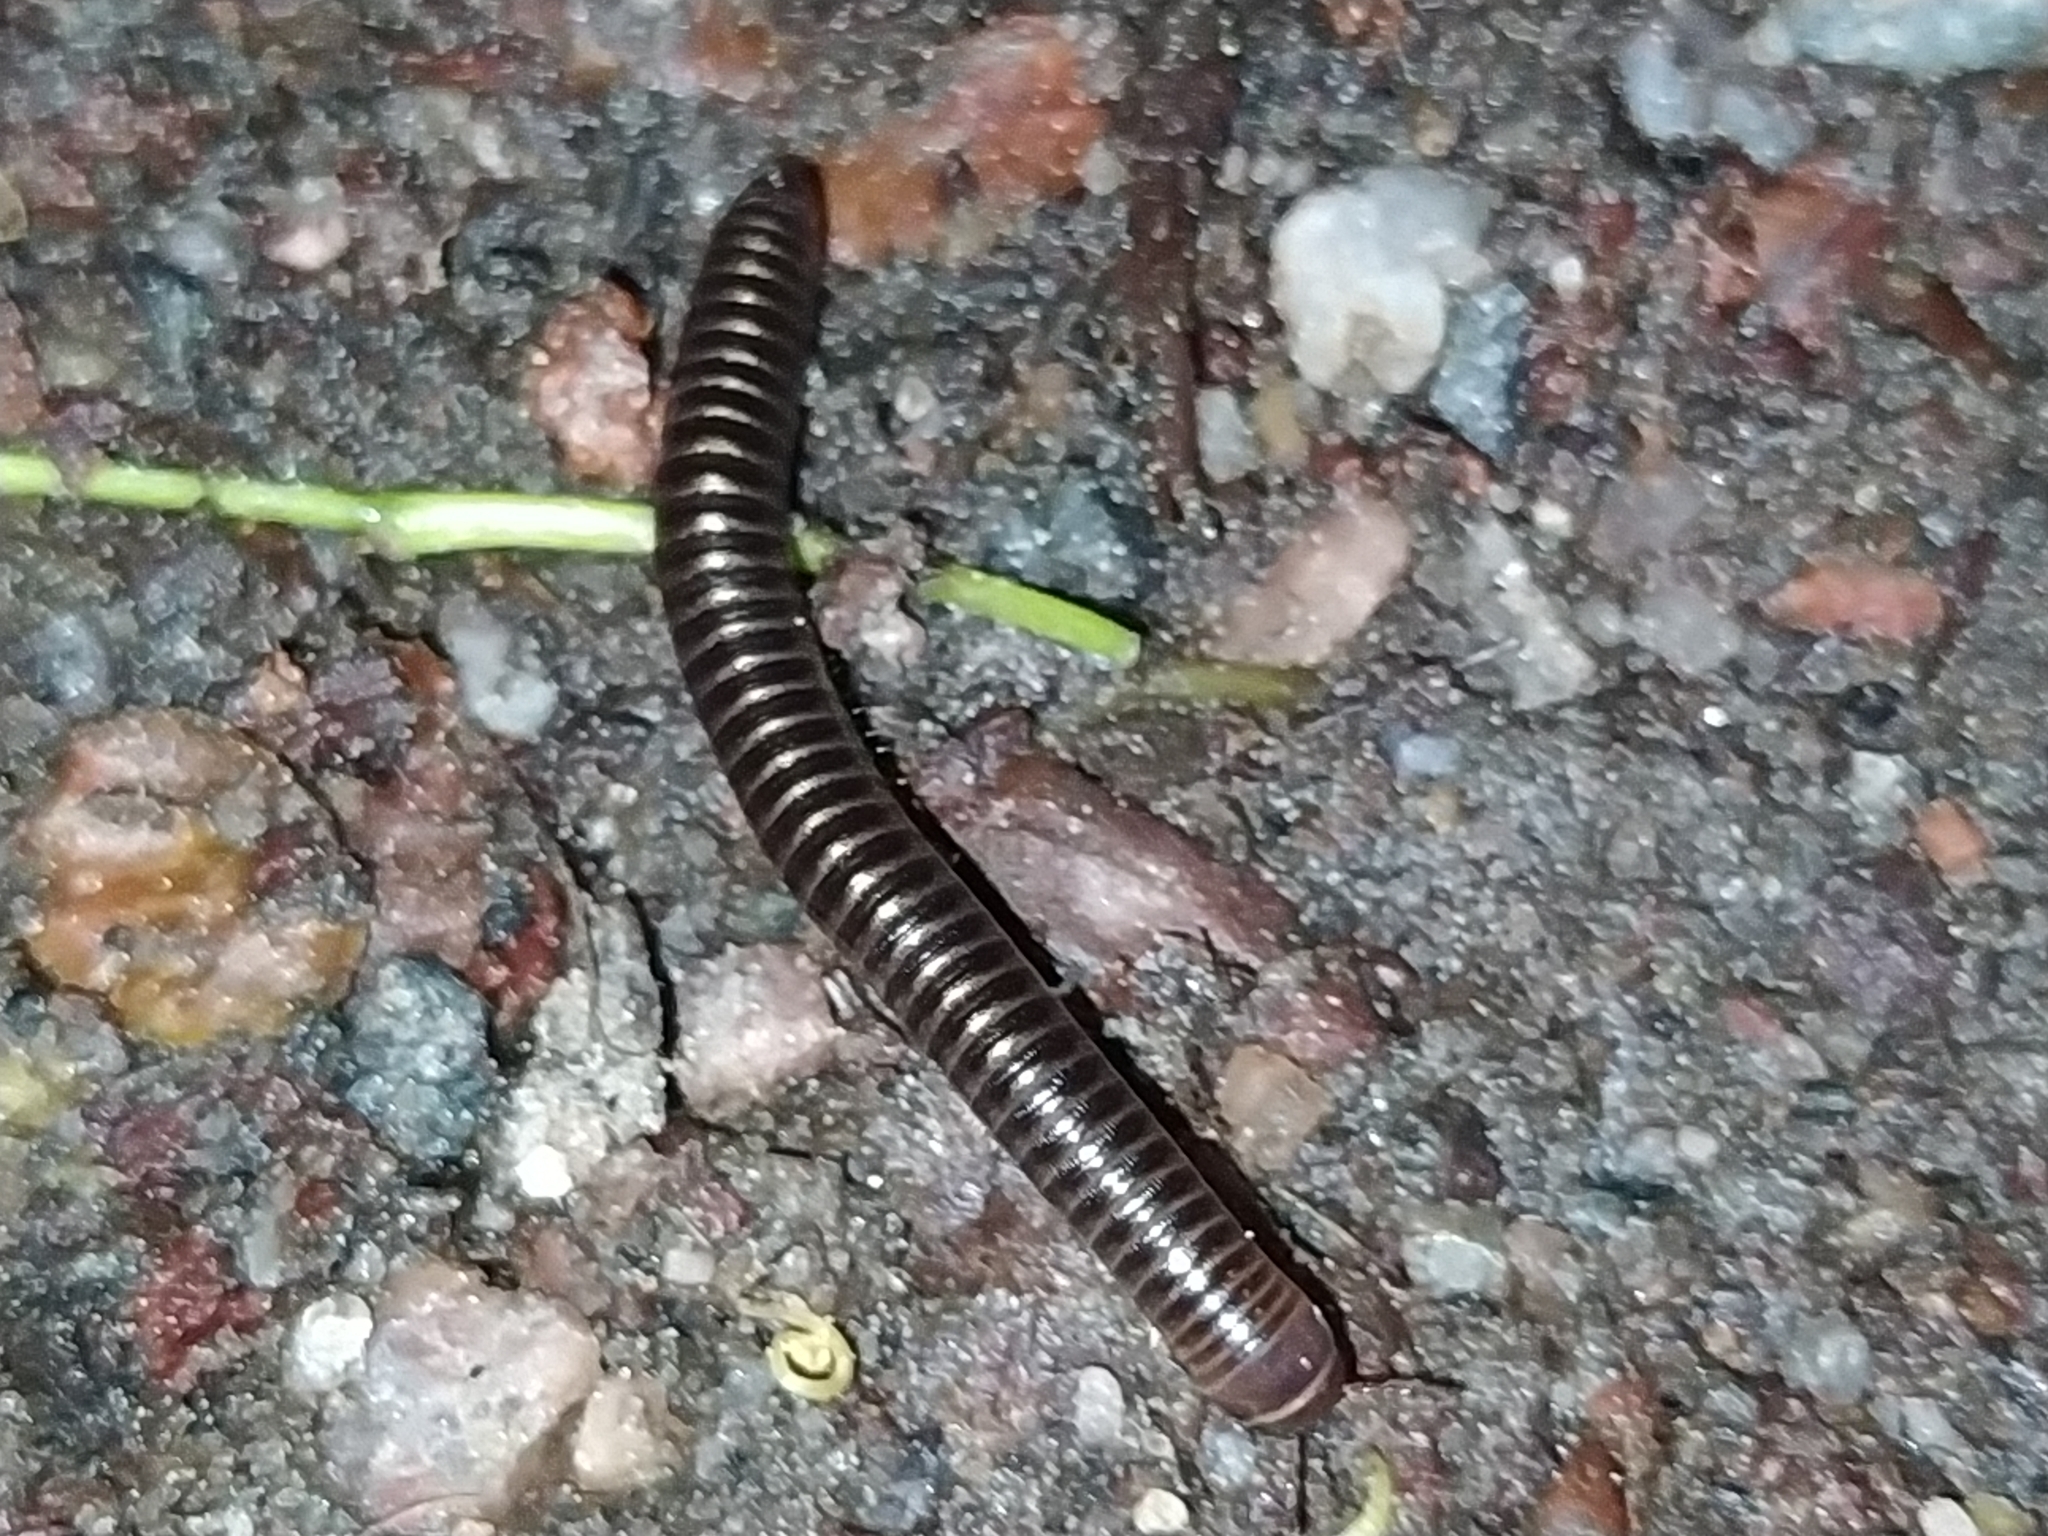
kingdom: Animalia
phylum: Arthropoda
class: Diplopoda
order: Julida
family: Julidae
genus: Cylindroiulus
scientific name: Cylindroiulus caeruleocinctus
